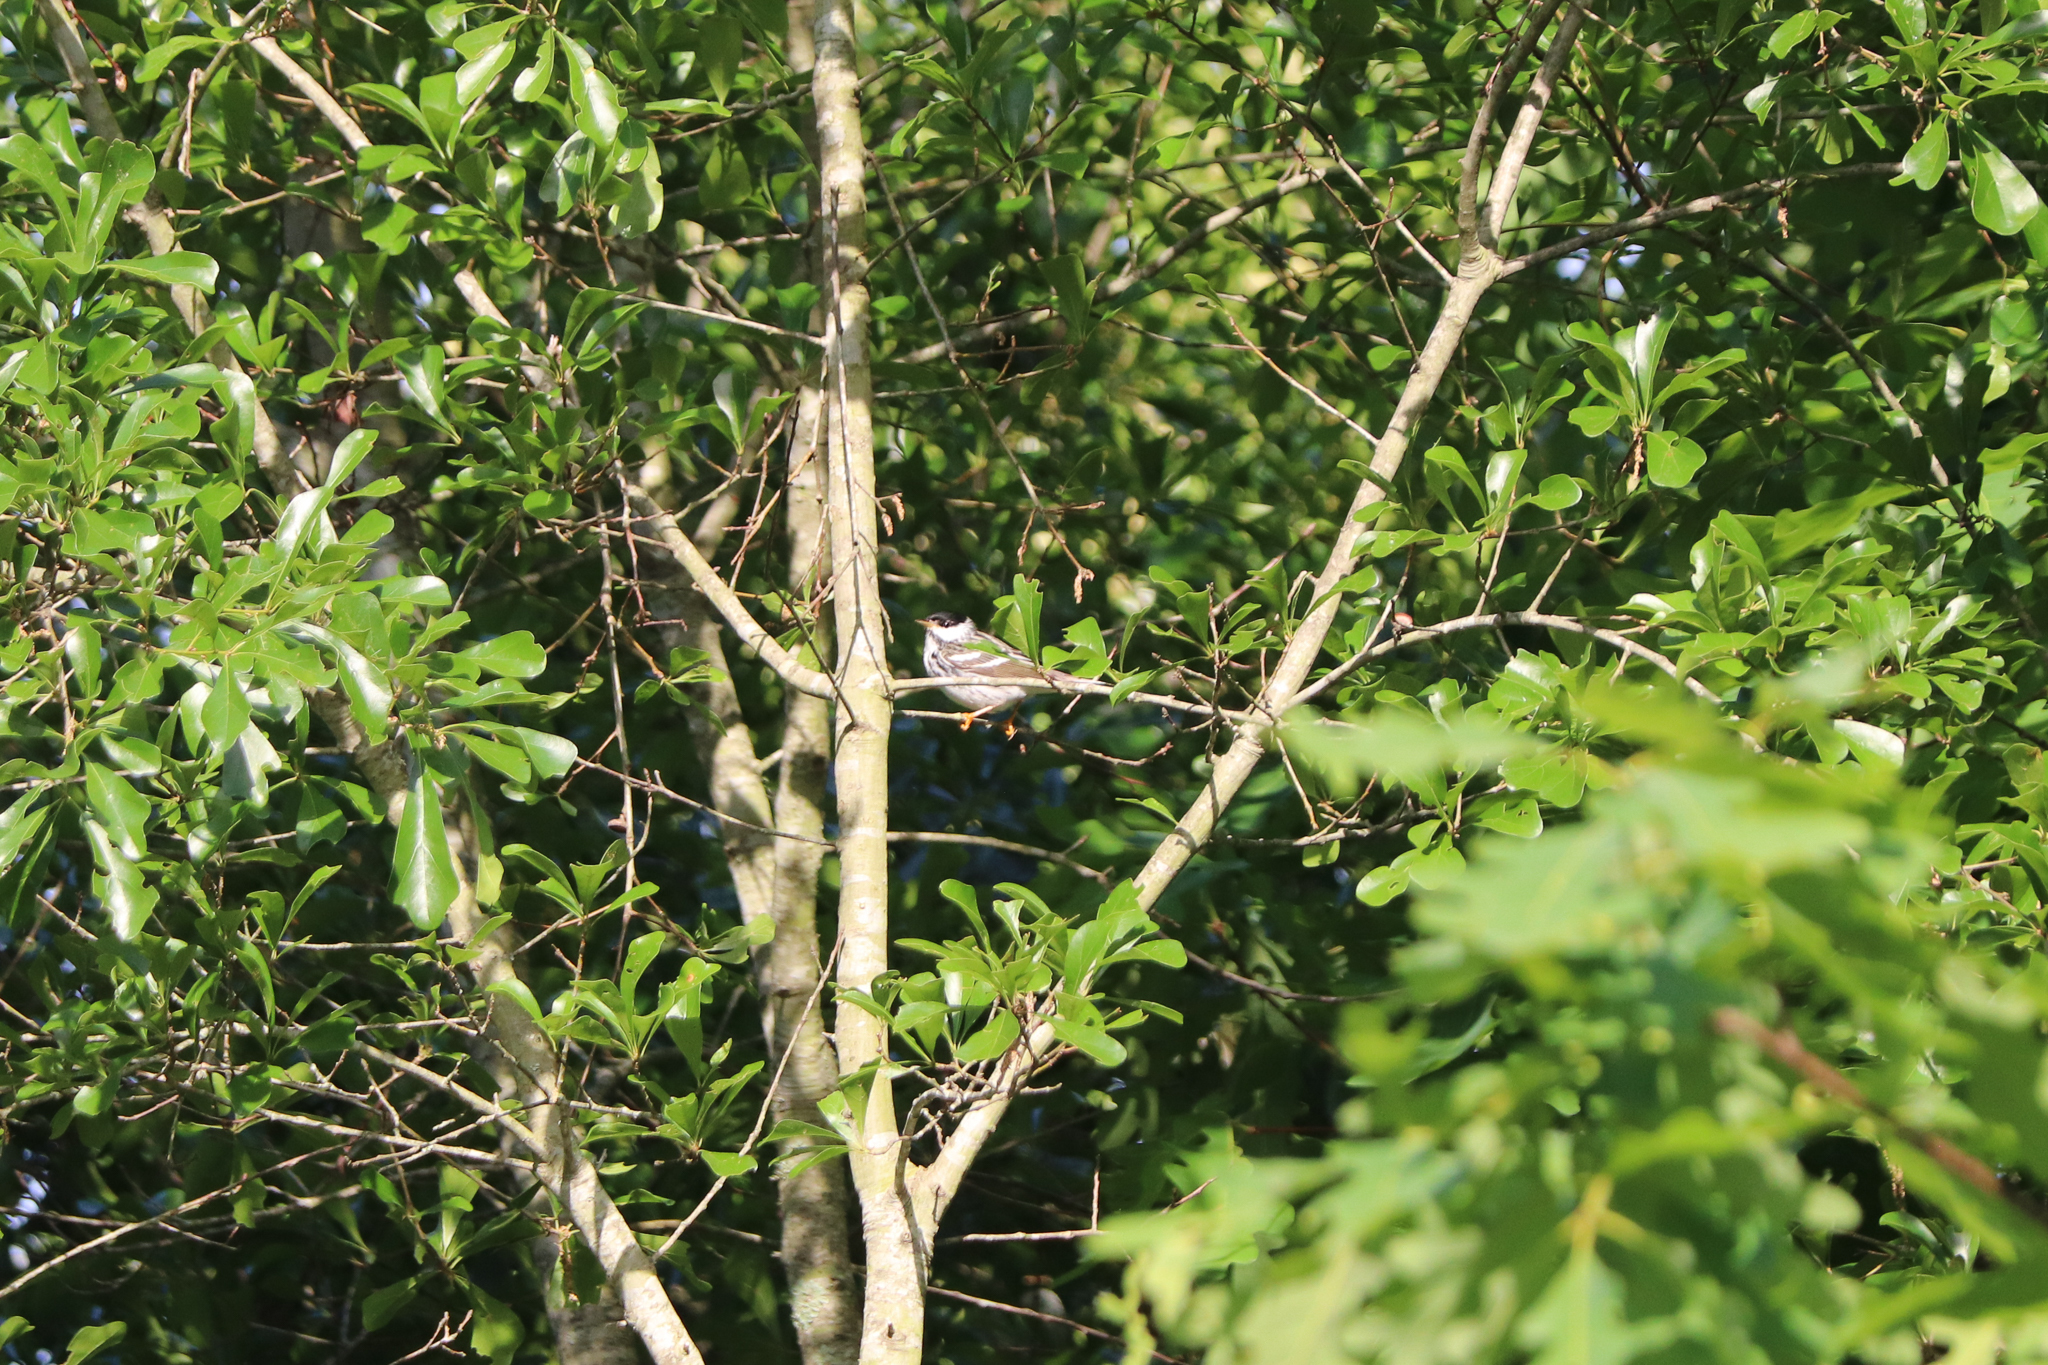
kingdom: Animalia
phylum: Chordata
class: Aves
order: Passeriformes
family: Parulidae
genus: Setophaga
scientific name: Setophaga striata
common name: Blackpoll warbler
